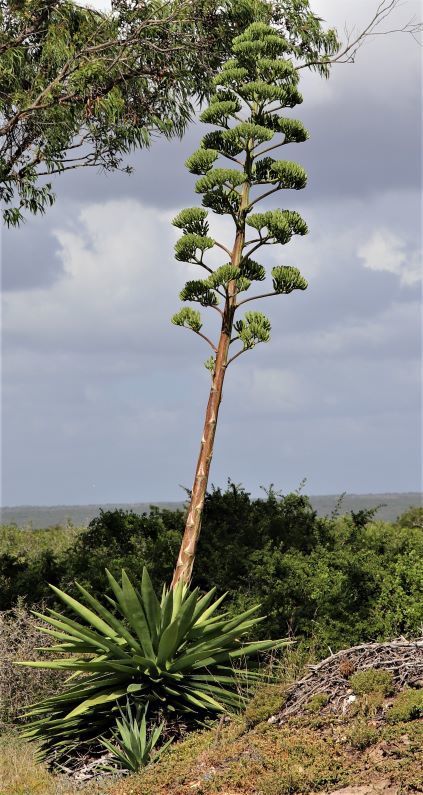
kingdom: Plantae
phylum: Tracheophyta
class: Liliopsida
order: Asparagales
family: Asparagaceae
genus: Agave
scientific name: Agave sisalana
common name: Sisal hemp
